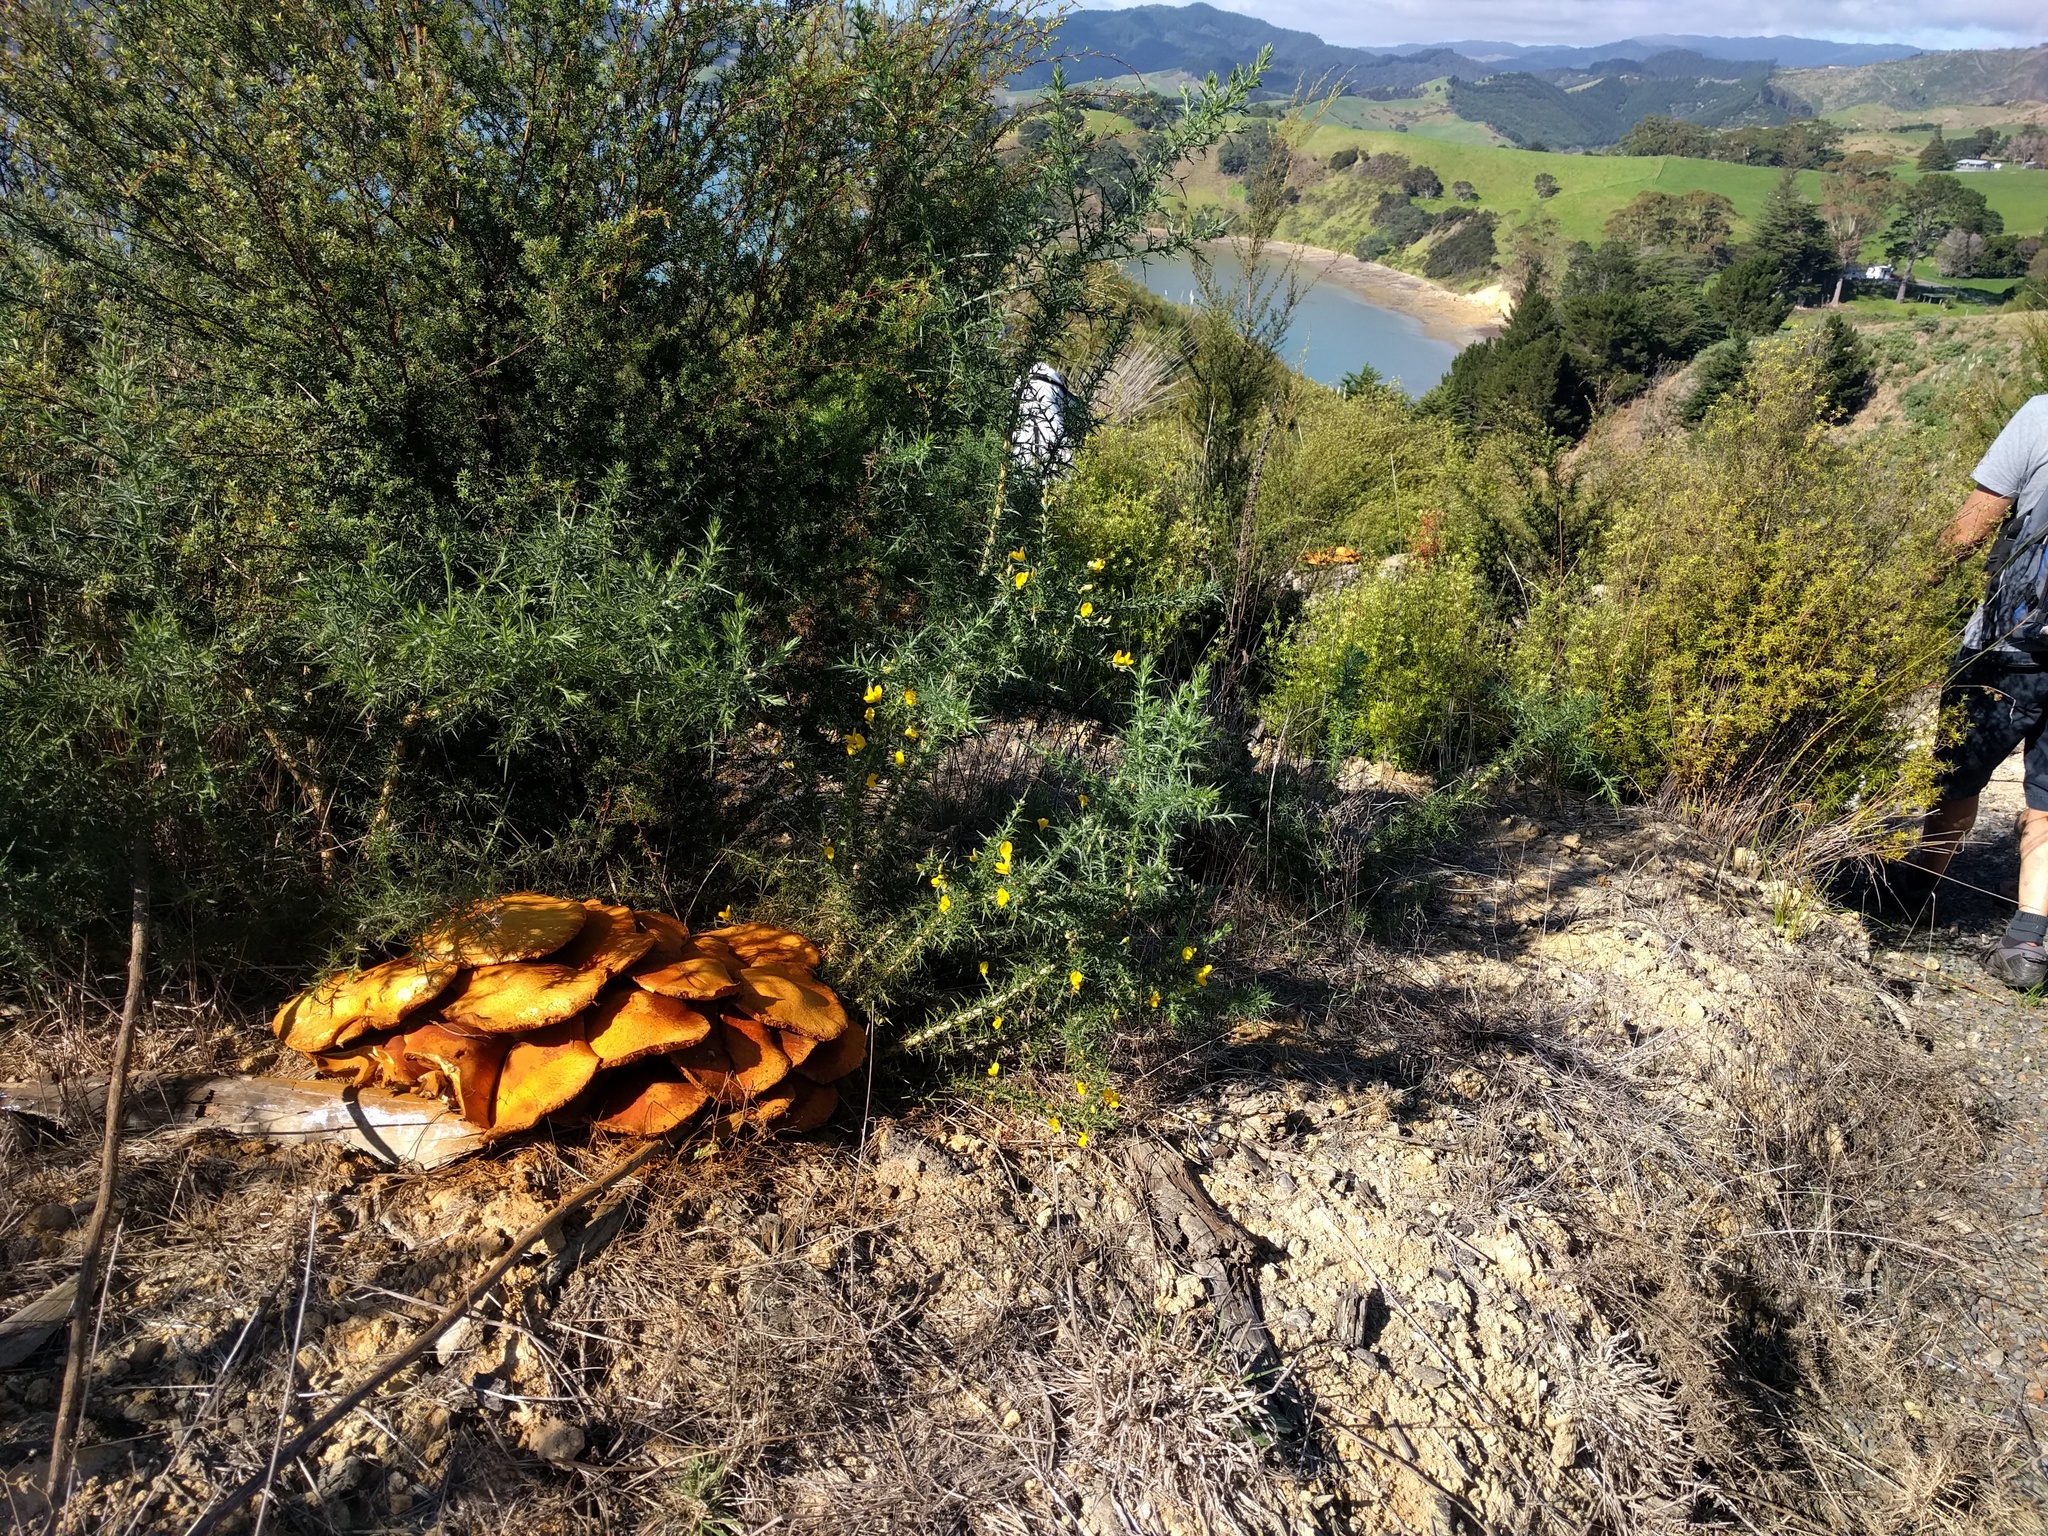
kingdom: Fungi
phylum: Basidiomycota
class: Agaricomycetes
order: Agaricales
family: Hymenogastraceae
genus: Gymnopilus
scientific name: Gymnopilus junonius
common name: Spectacular rustgill
